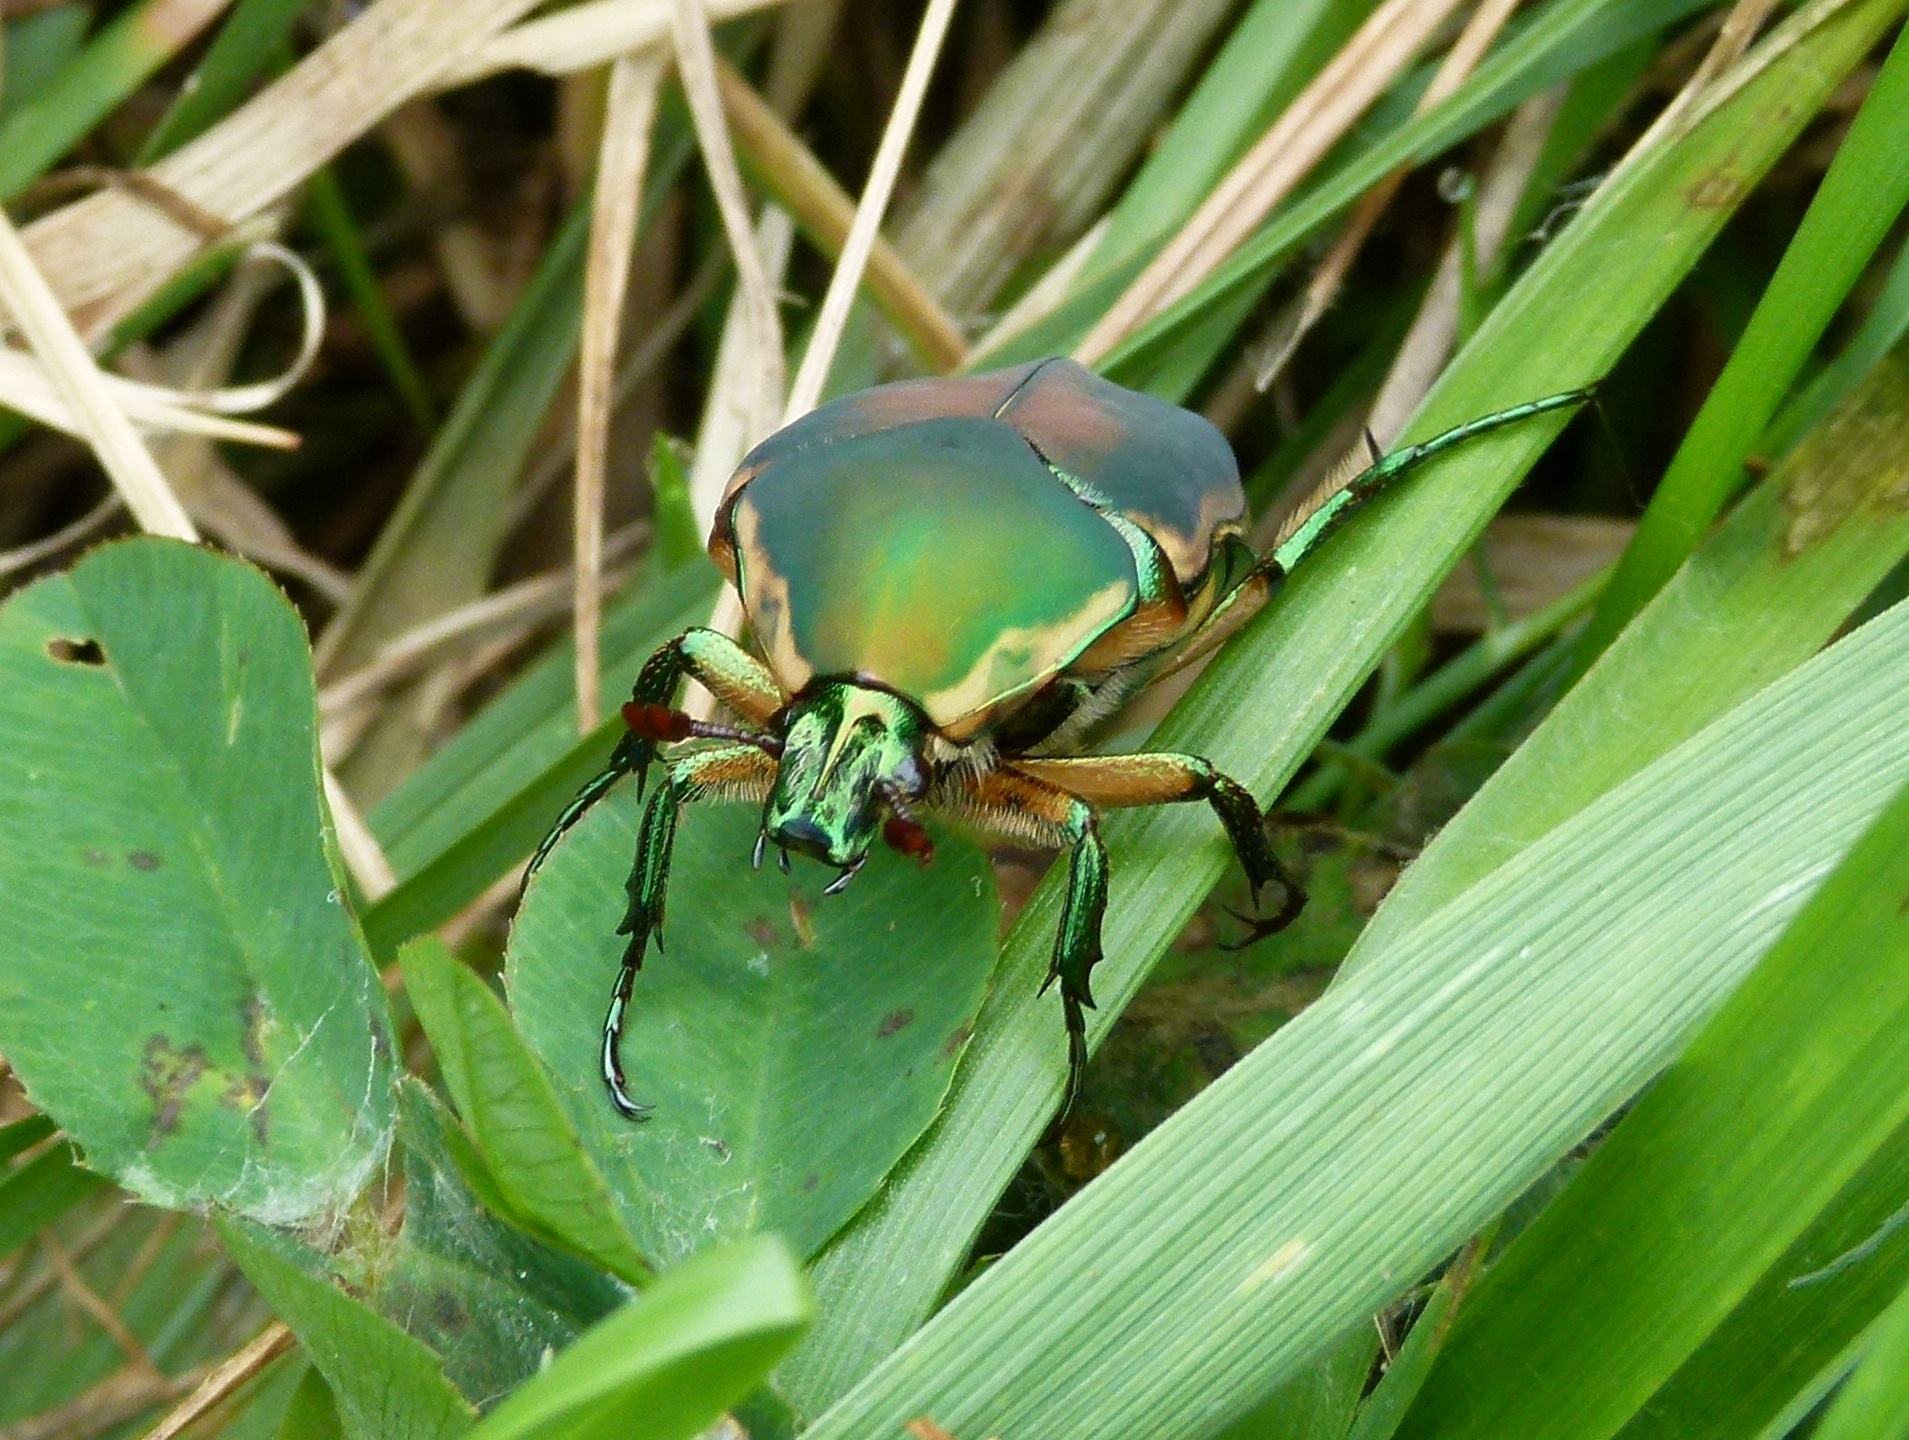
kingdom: Animalia
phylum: Arthropoda
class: Insecta
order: Coleoptera
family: Scarabaeidae
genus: Cotinis
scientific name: Cotinis nitida
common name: Common green june beetle
